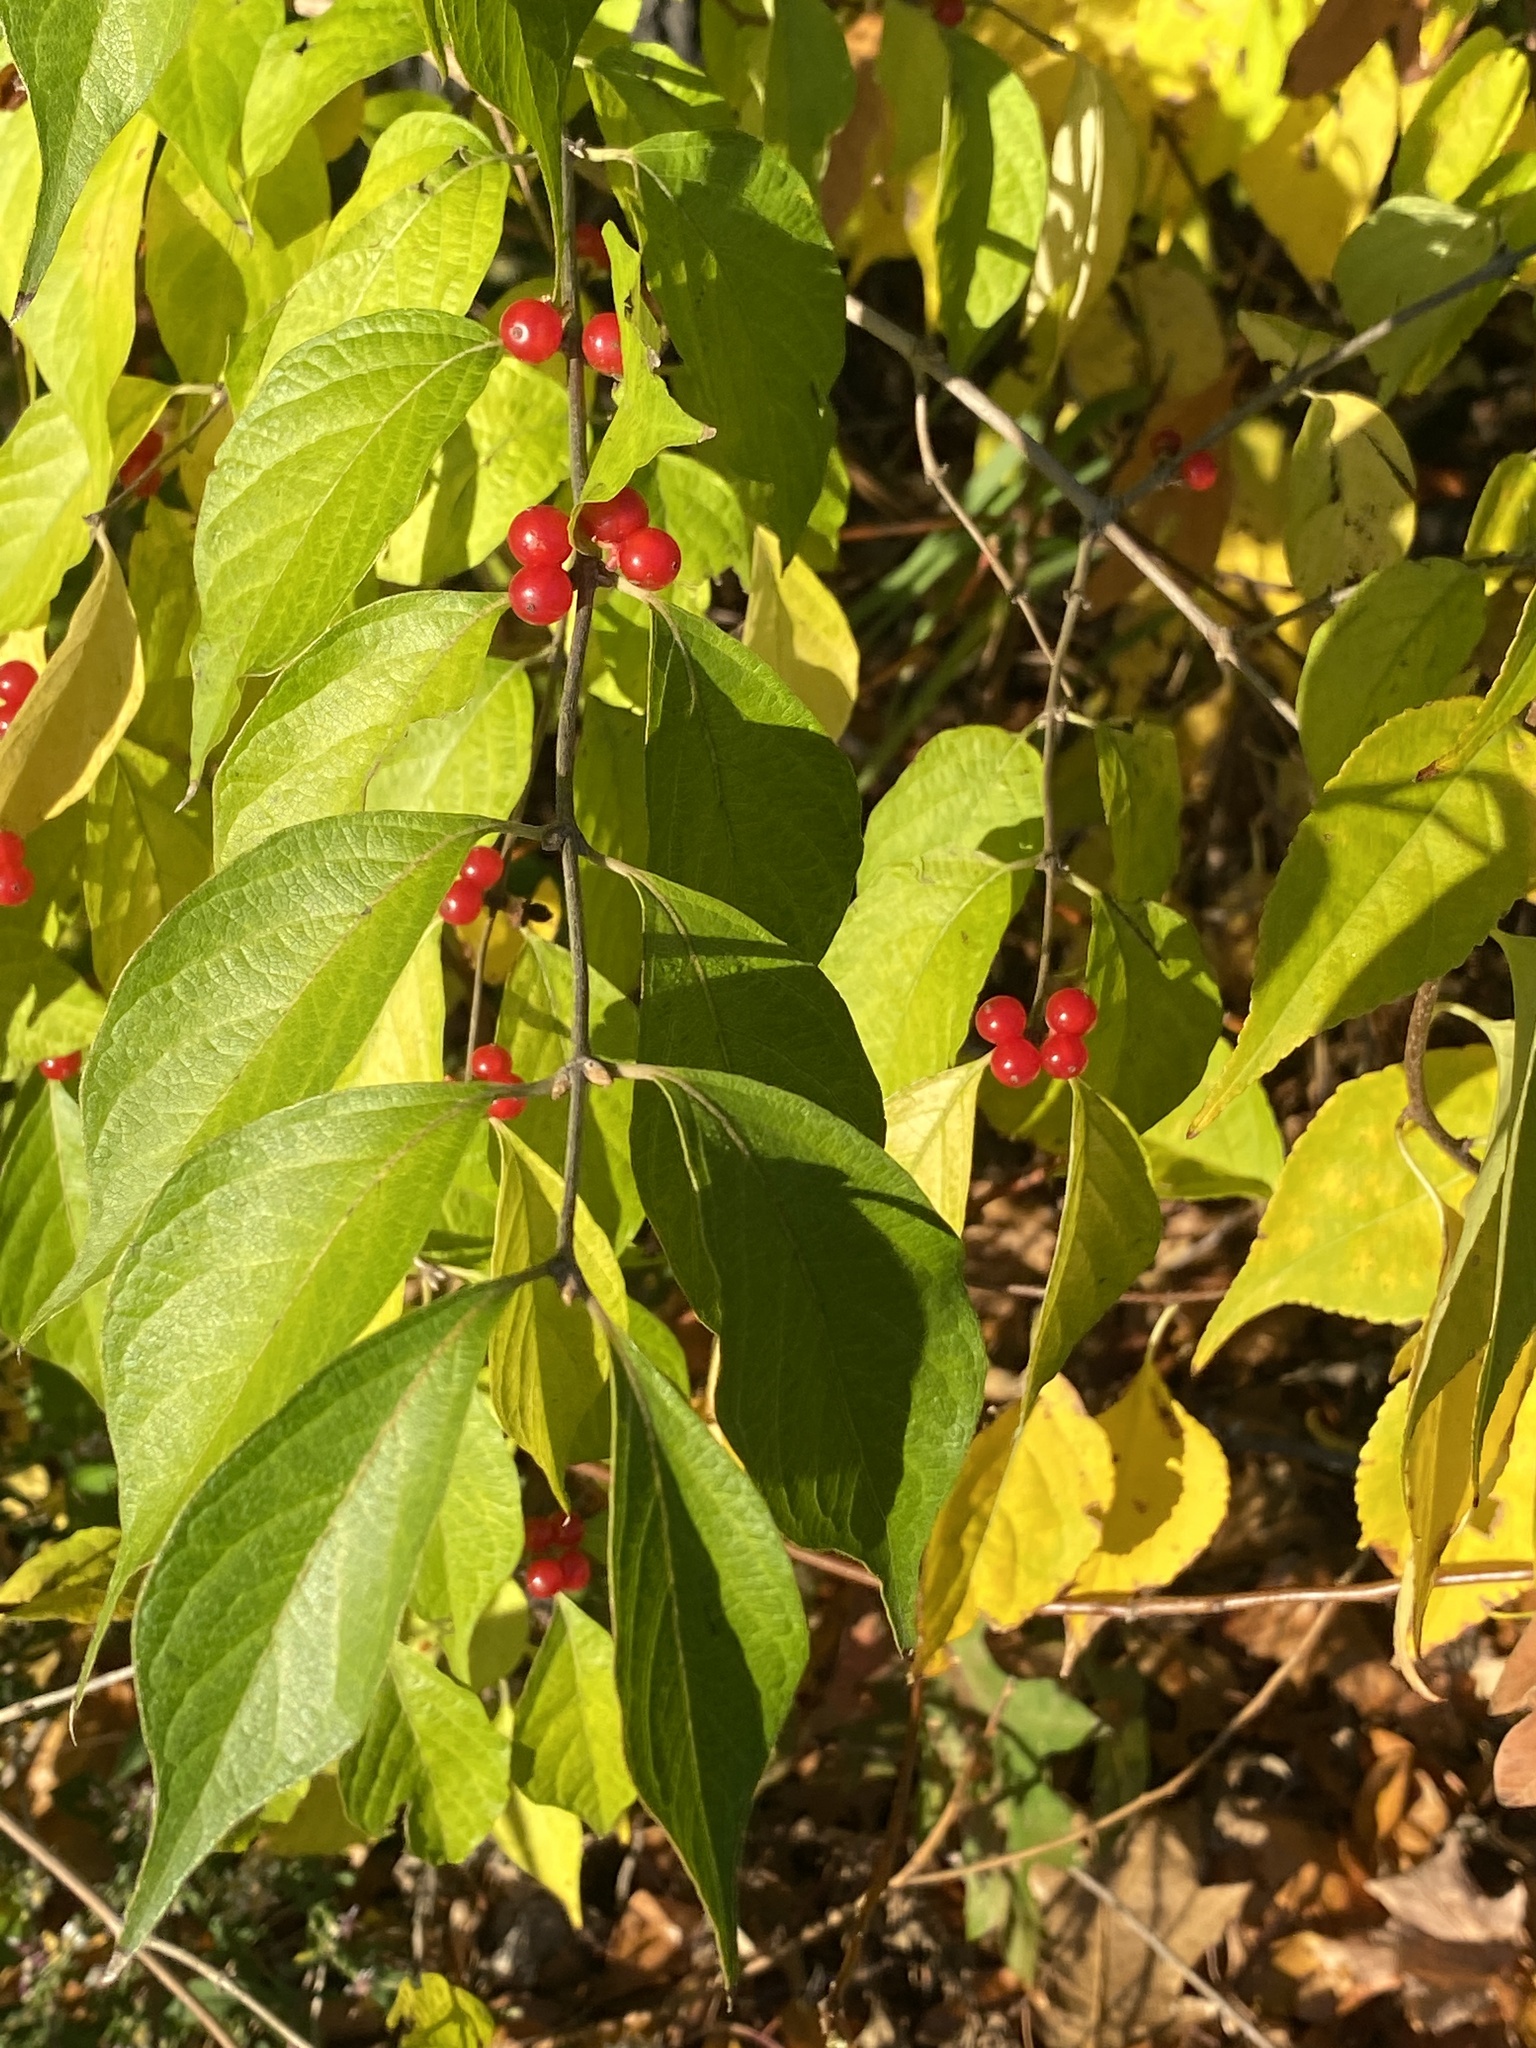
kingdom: Plantae
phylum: Tracheophyta
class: Magnoliopsida
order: Dipsacales
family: Caprifoliaceae
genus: Lonicera
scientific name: Lonicera maackii
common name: Amur honeysuckle
